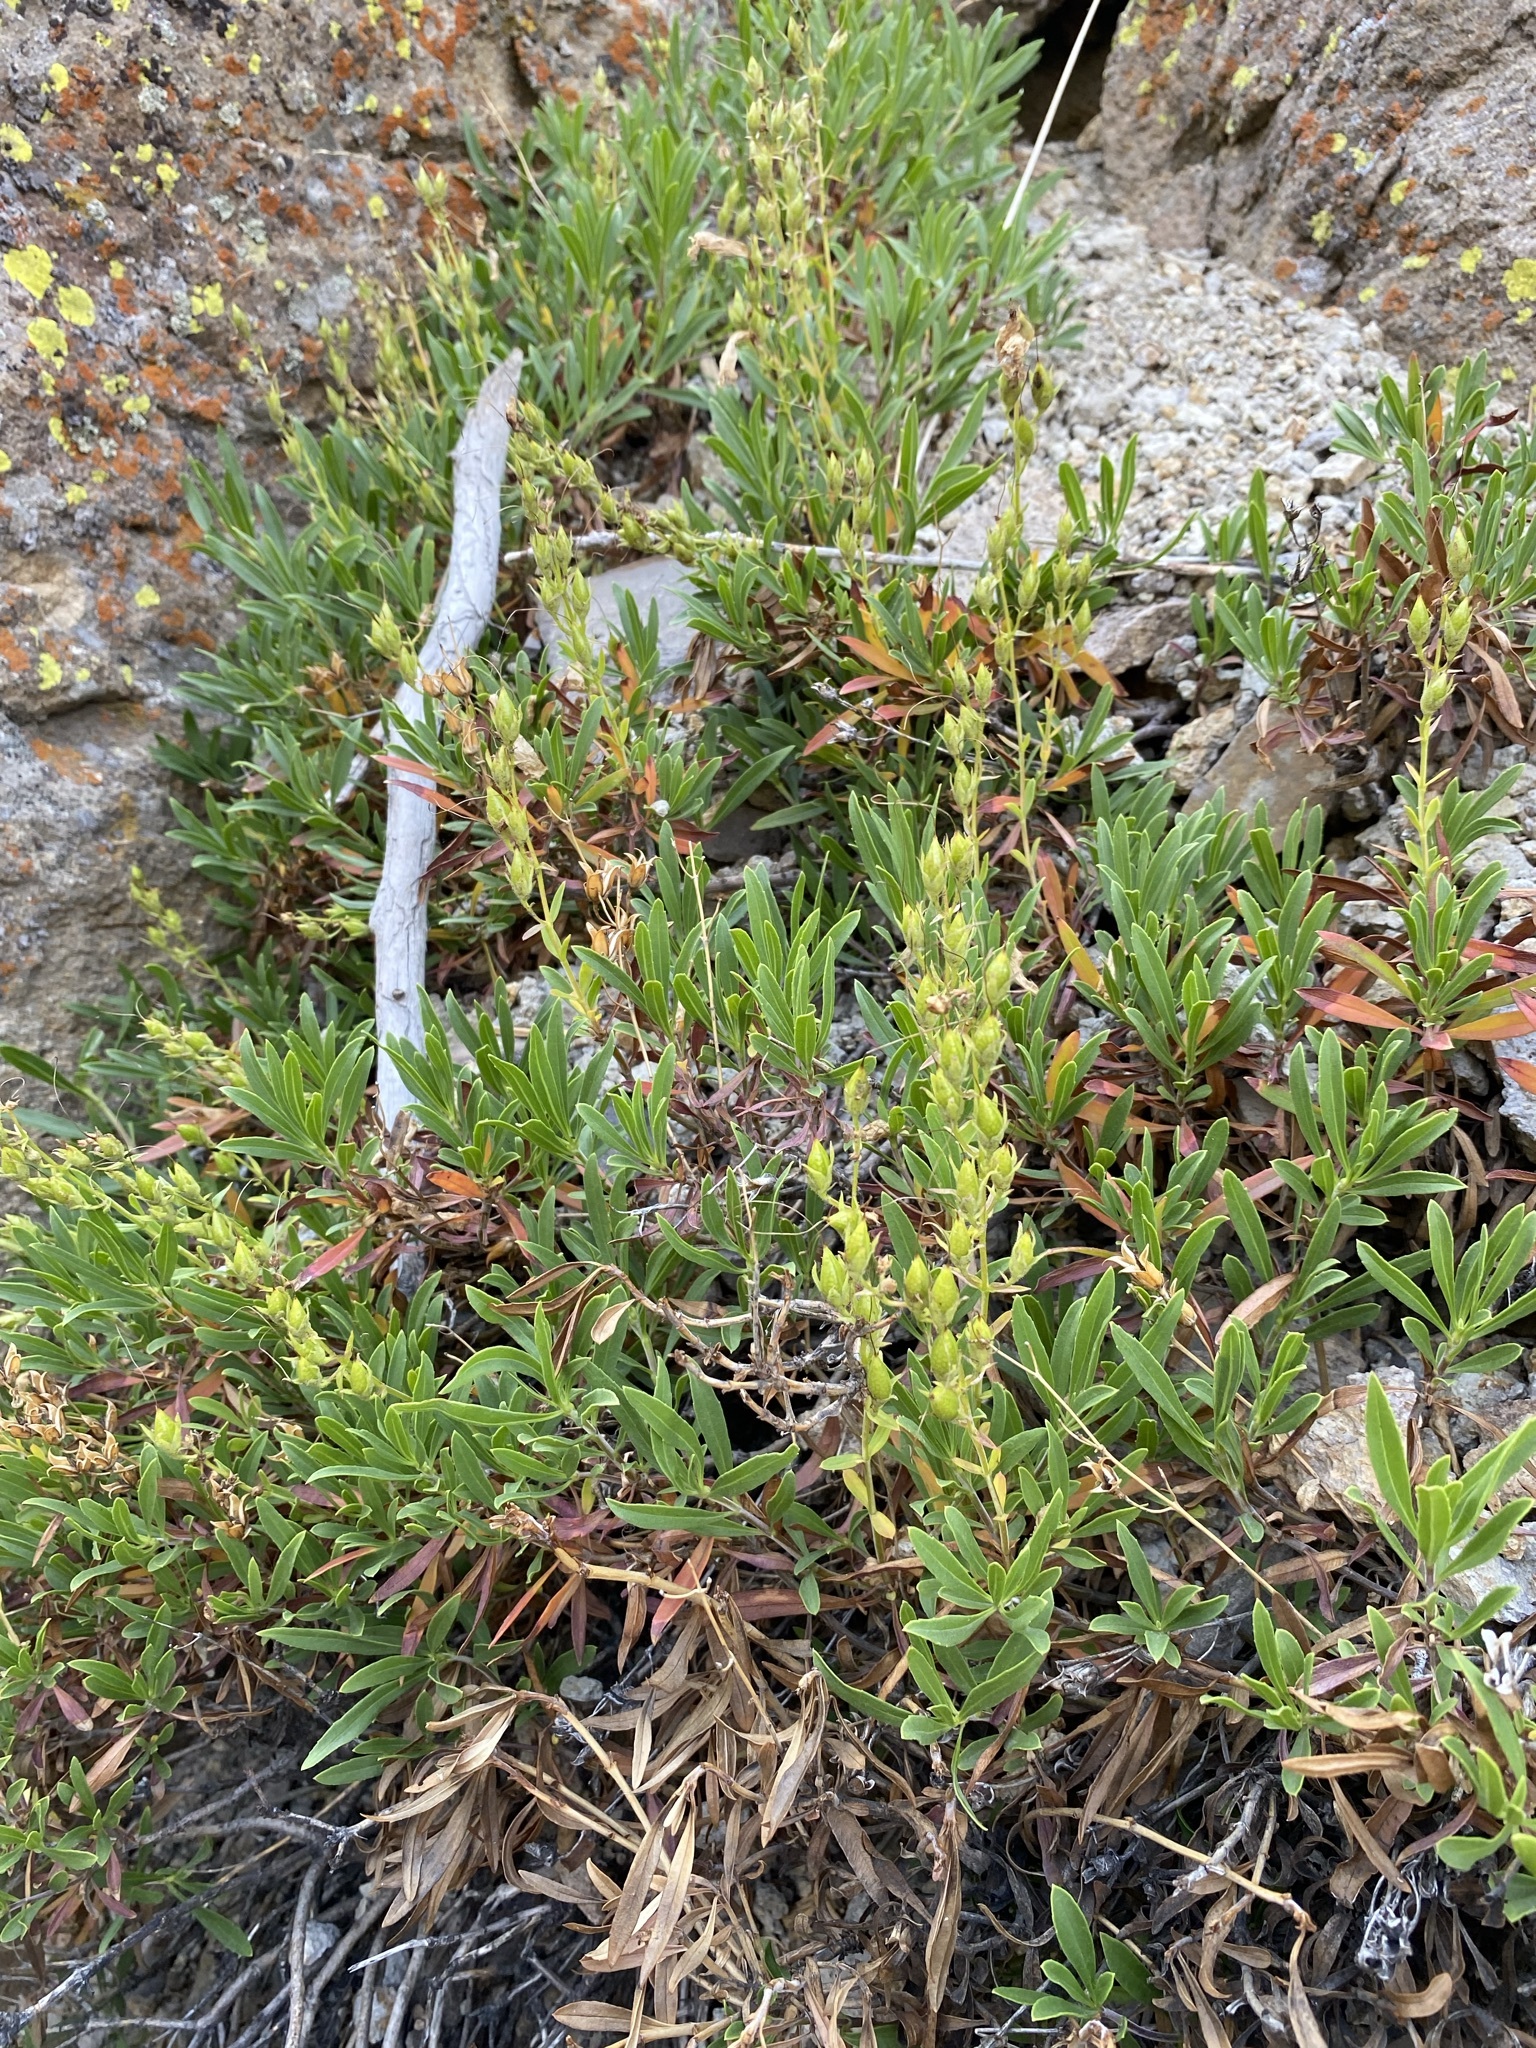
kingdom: Plantae
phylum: Tracheophyta
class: Magnoliopsida
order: Lamiales
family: Plantaginaceae
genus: Penstemon
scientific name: Penstemon fruticosus
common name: Bush penstemon
